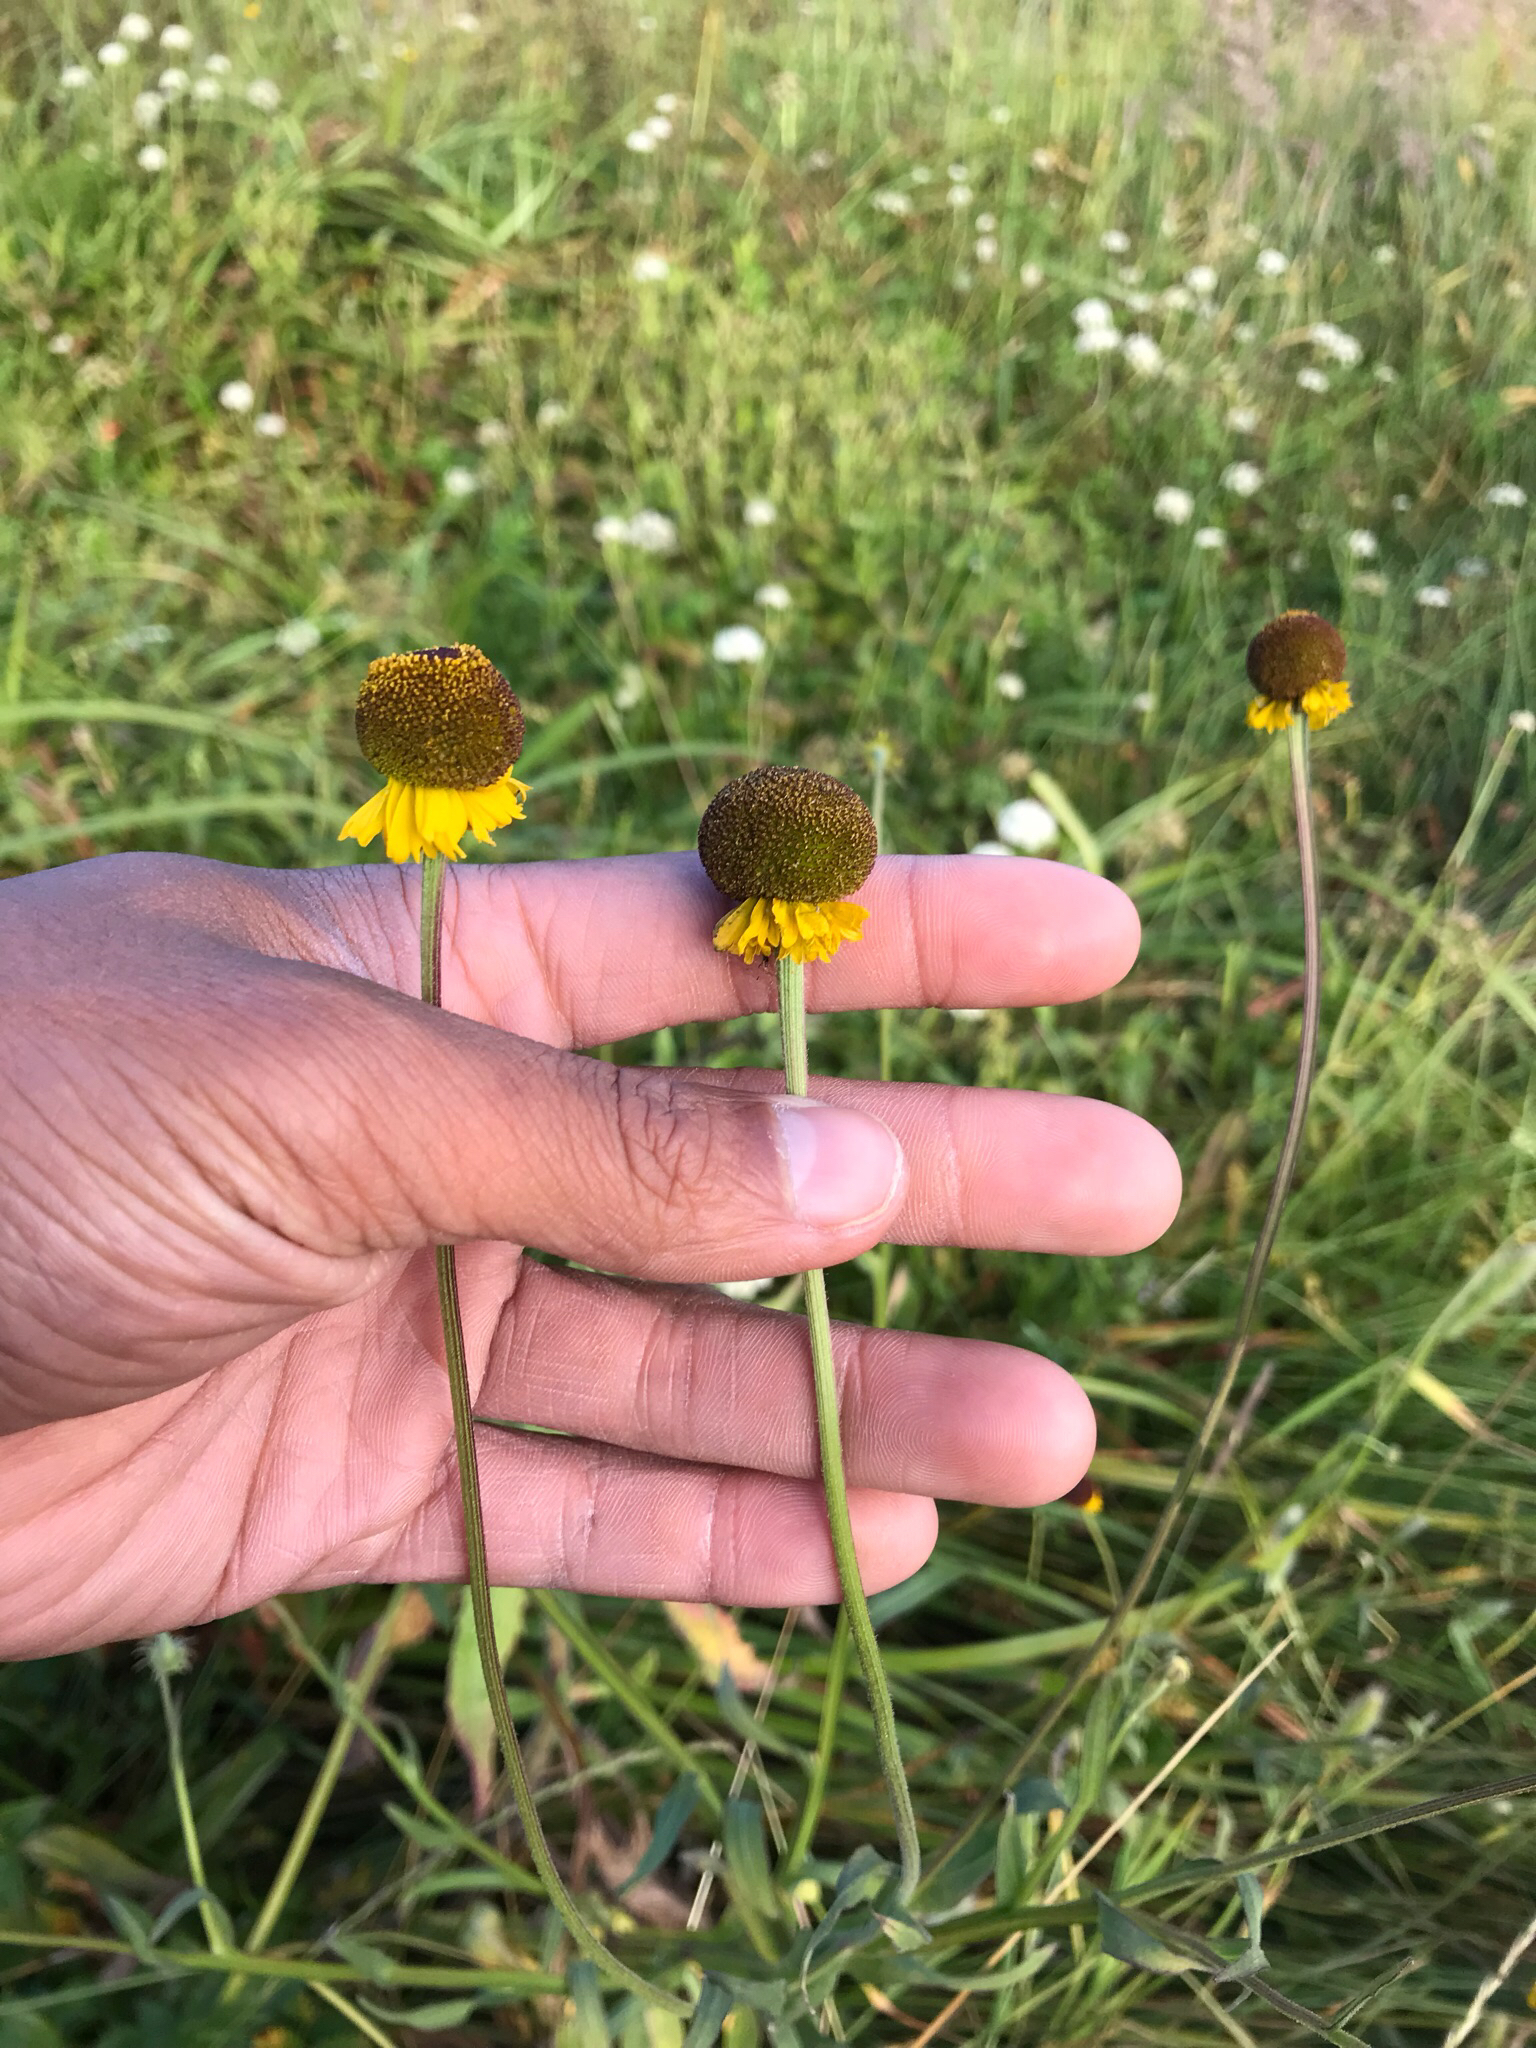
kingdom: Plantae
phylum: Tracheophyta
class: Magnoliopsida
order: Asterales
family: Asteraceae
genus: Helenium
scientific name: Helenium puberulum
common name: Sneezewort
